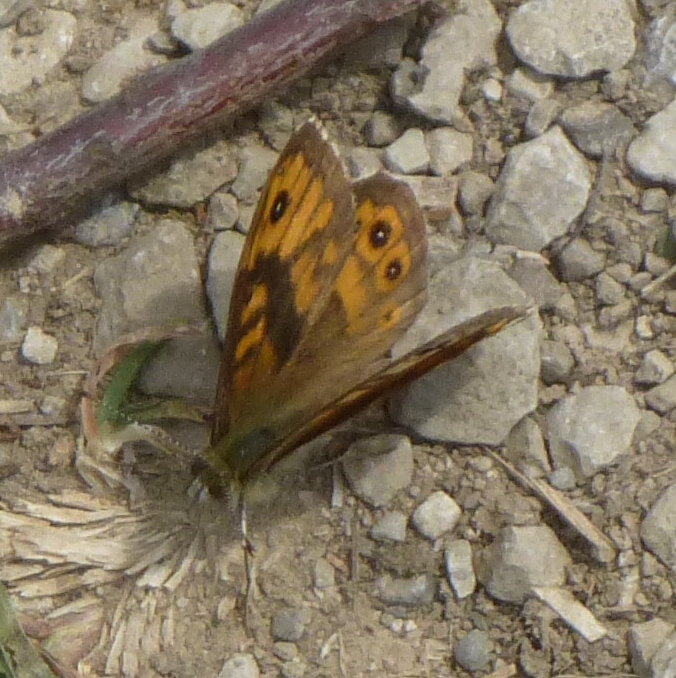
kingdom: Animalia
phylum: Arthropoda
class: Insecta
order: Lepidoptera
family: Nymphalidae
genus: Pararge
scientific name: Pararge Lasiommata megera
